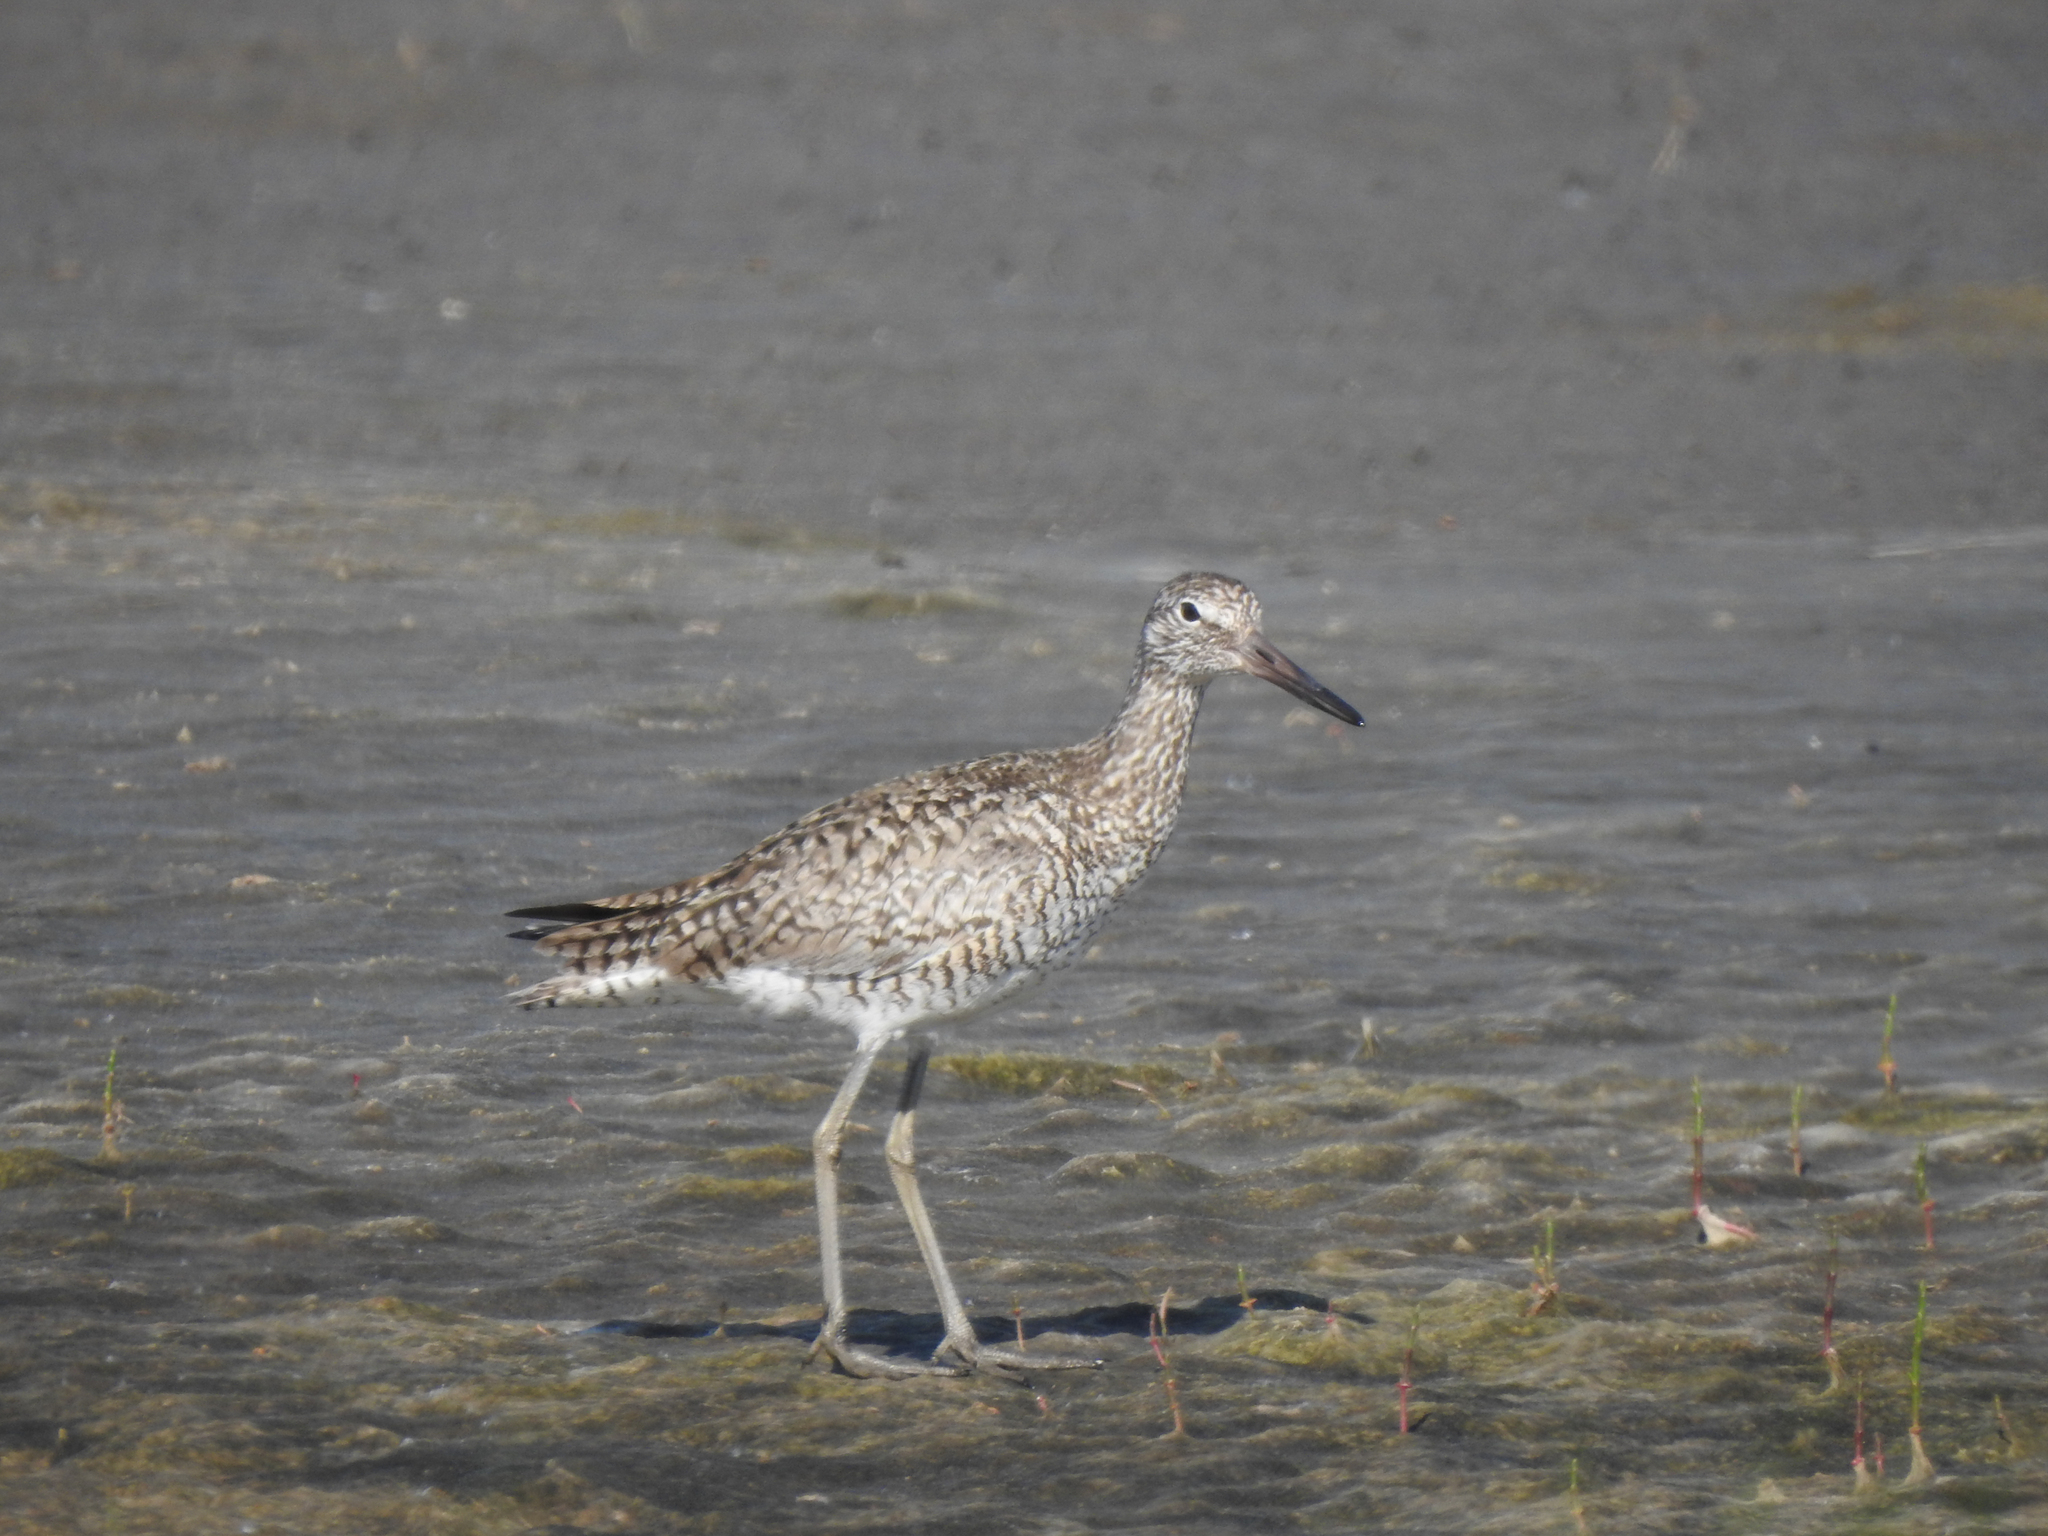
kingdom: Animalia
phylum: Chordata
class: Aves
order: Charadriiformes
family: Scolopacidae
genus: Tringa
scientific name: Tringa semipalmata
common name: Willet
